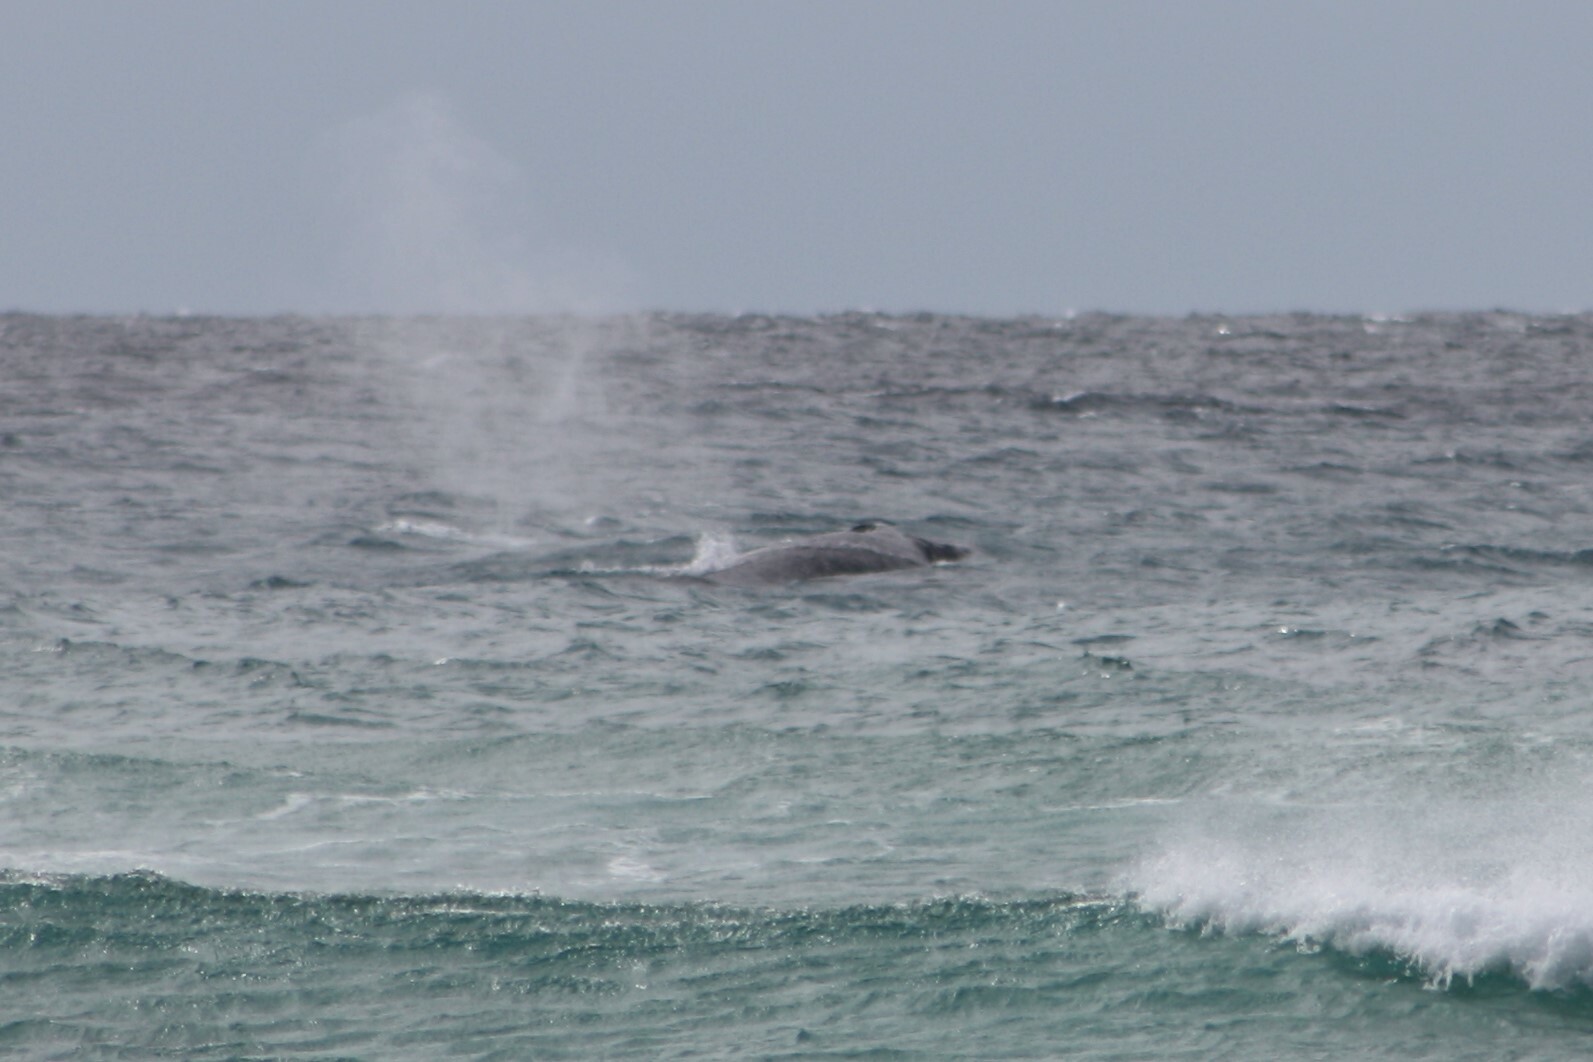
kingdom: Animalia
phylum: Chordata
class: Mammalia
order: Cetacea
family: Balaenopteridae
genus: Megaptera
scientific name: Megaptera novaeangliae
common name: Humpback whale
